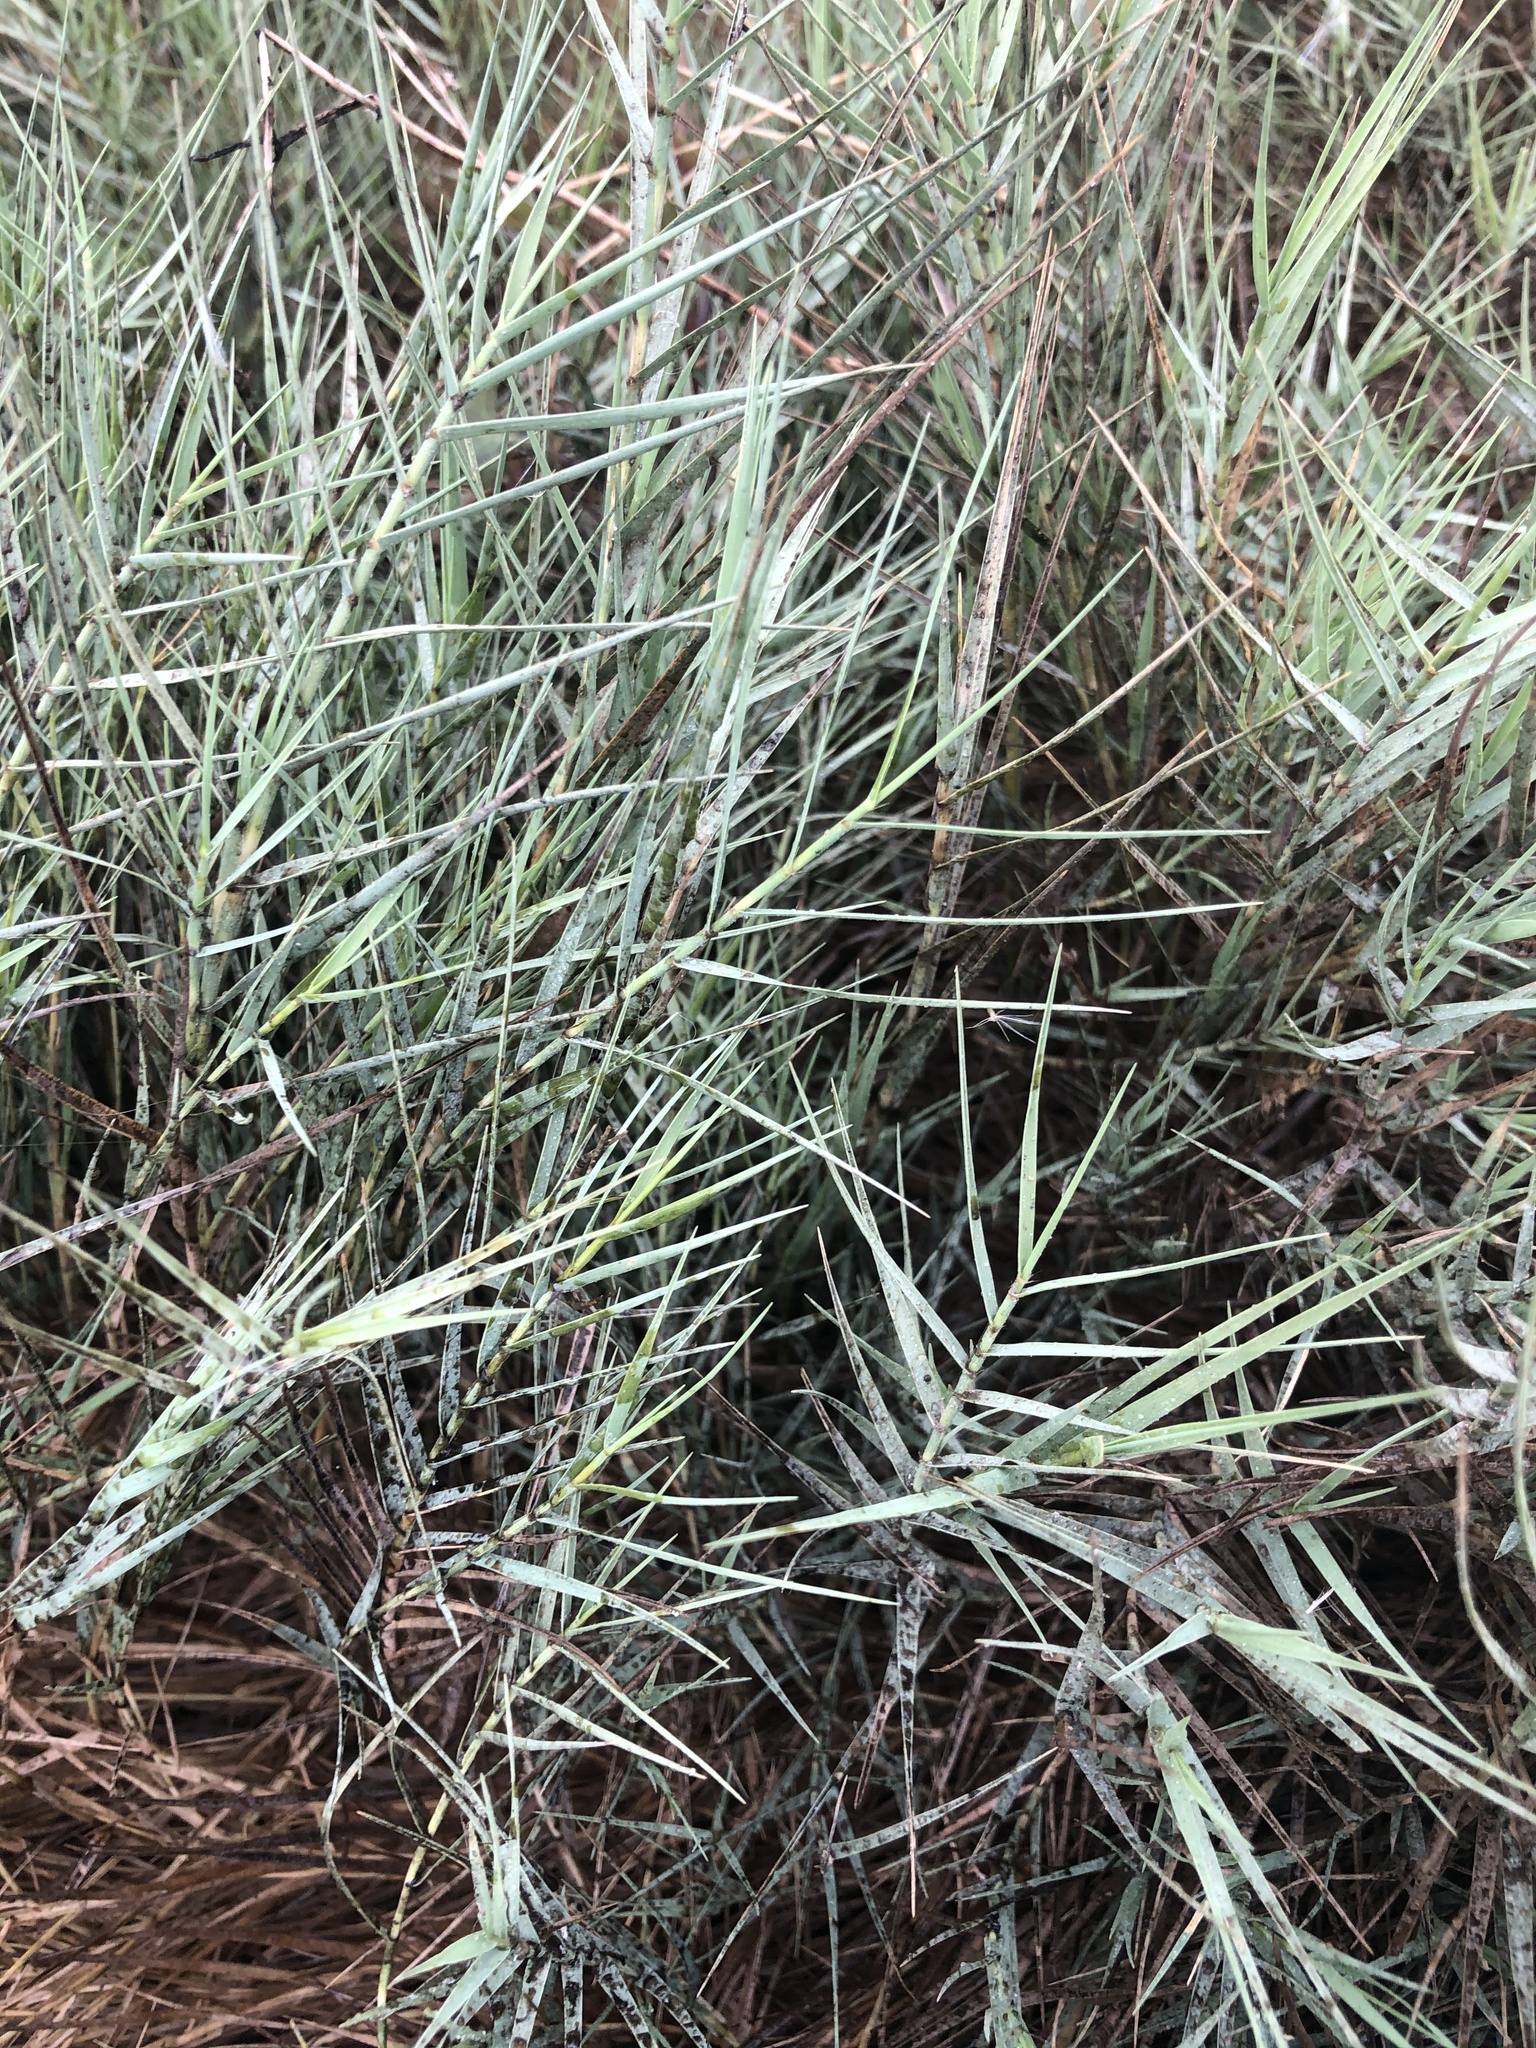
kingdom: Plantae
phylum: Tracheophyta
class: Liliopsida
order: Poales
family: Poaceae
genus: Distichlis
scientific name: Distichlis spicata
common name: Saltgrass
